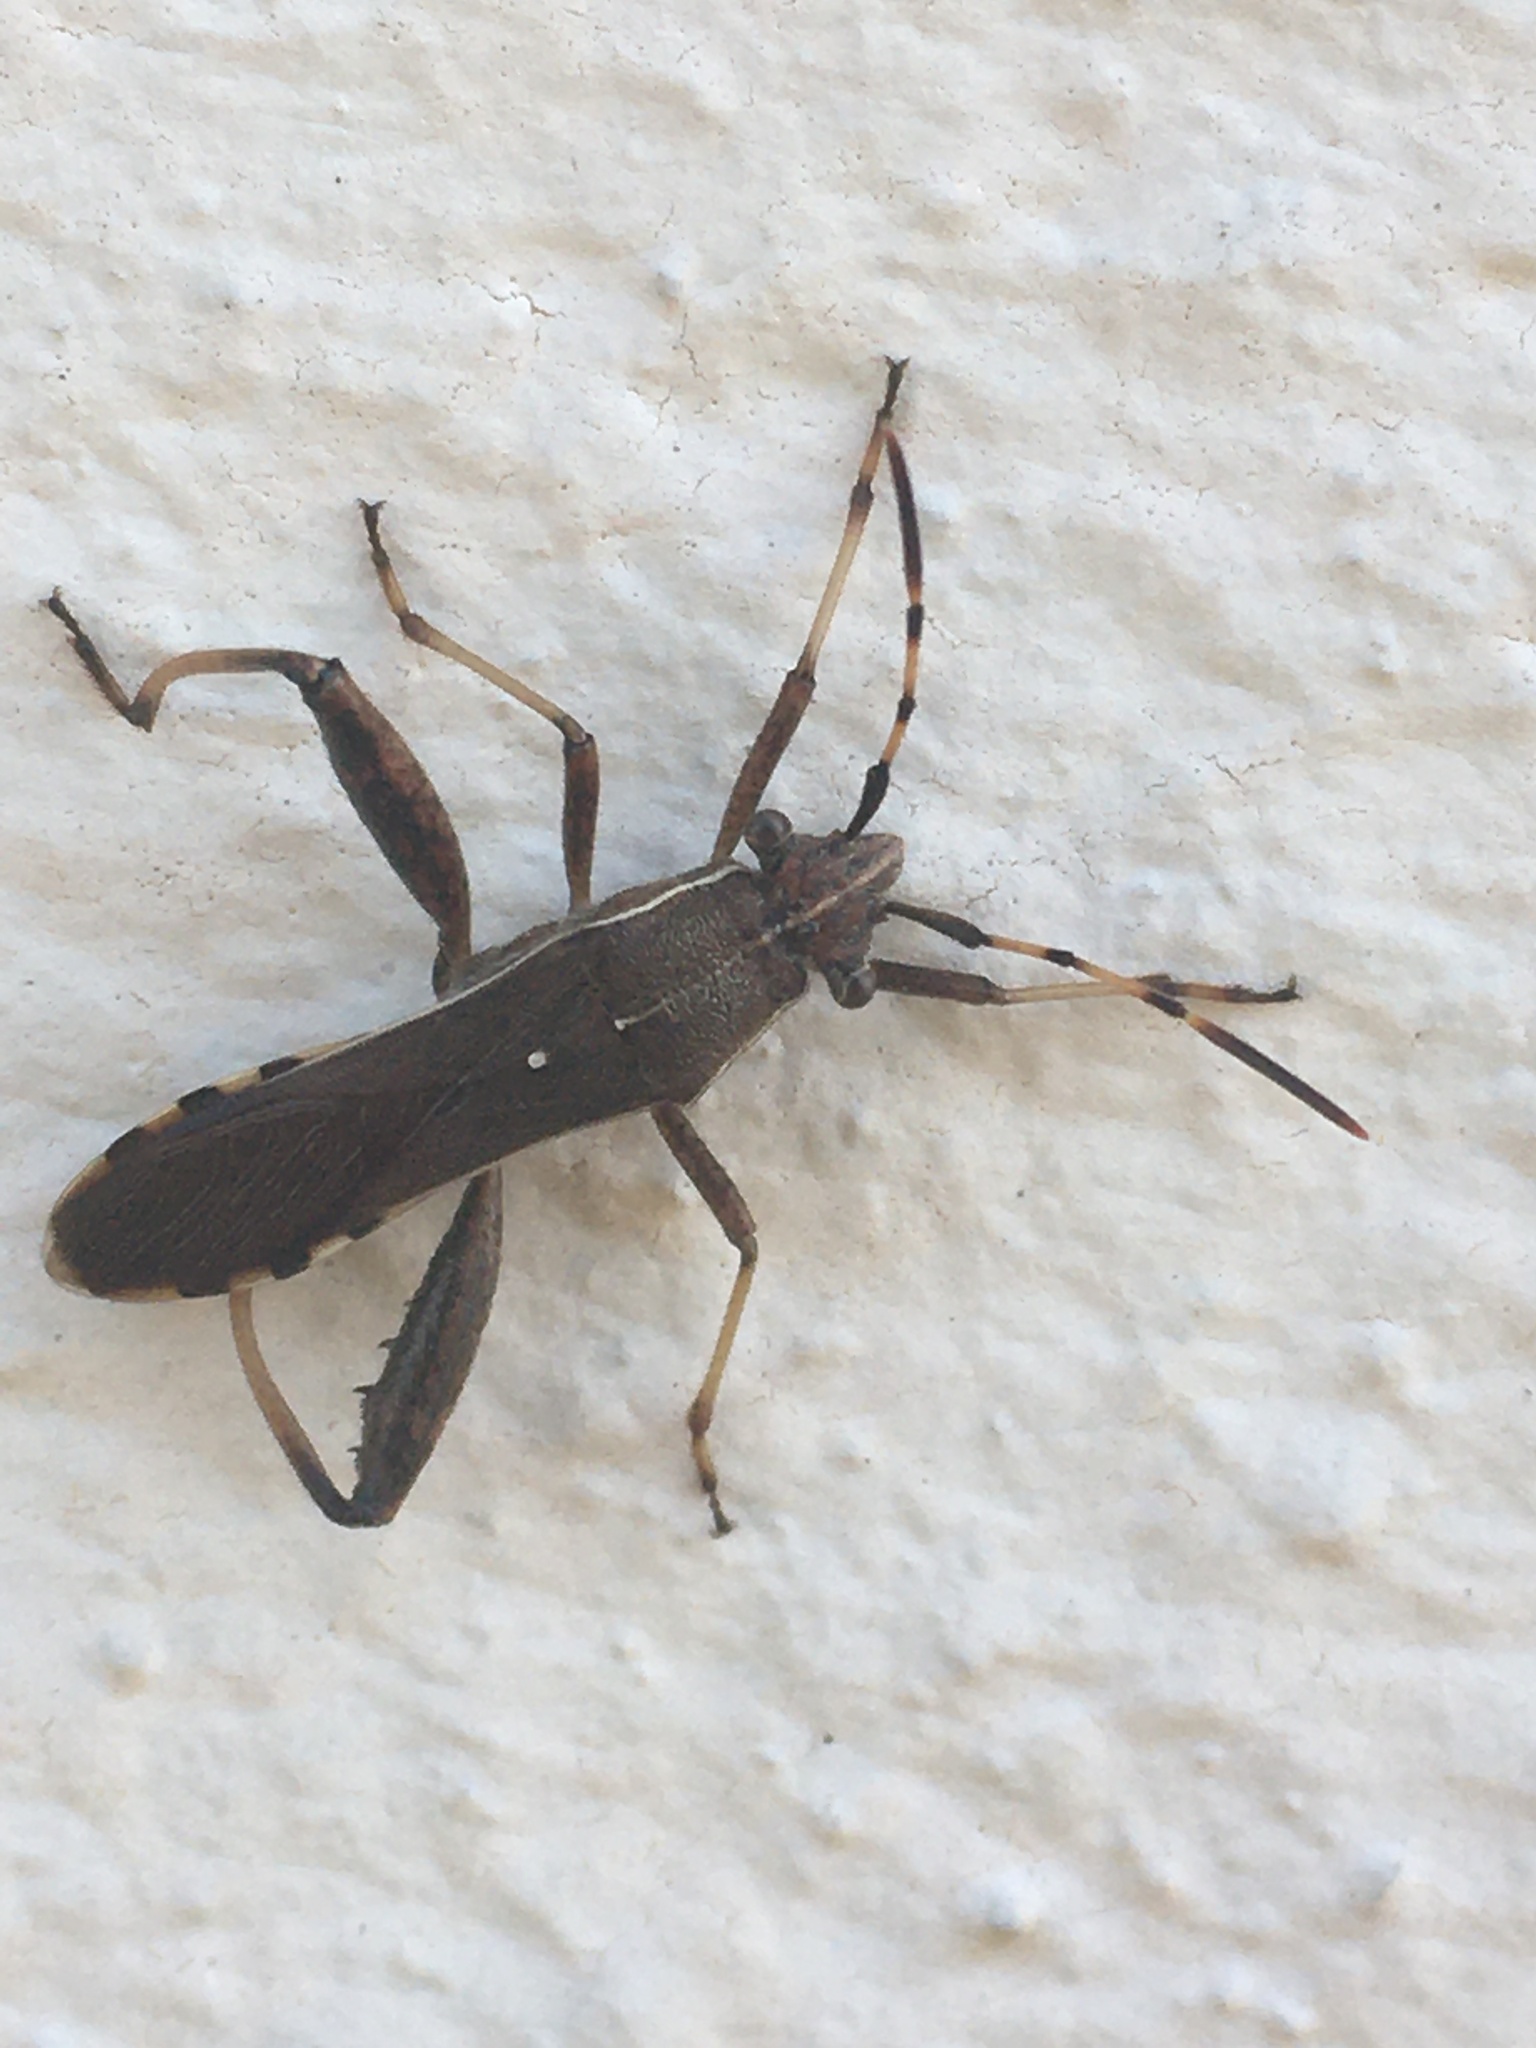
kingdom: Animalia
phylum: Arthropoda
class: Insecta
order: Hemiptera
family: Alydidae
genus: Camptopus
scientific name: Camptopus lateralis
